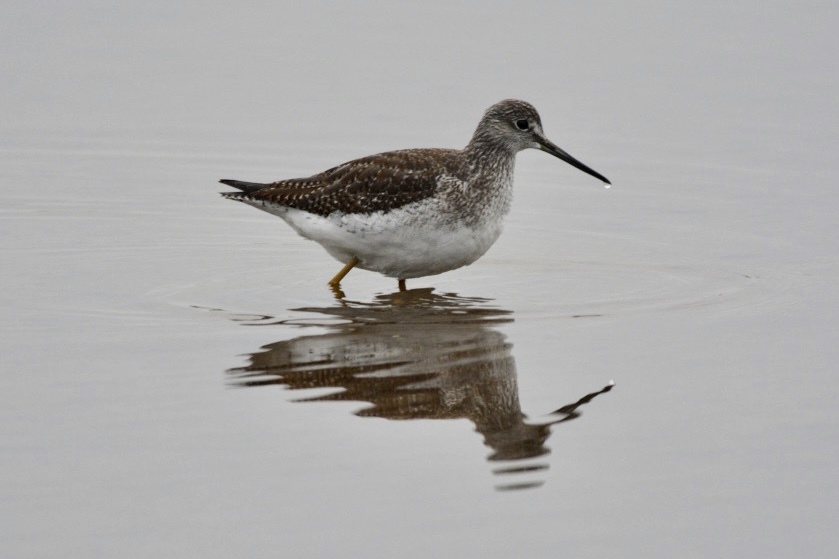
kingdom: Animalia
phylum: Chordata
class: Aves
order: Charadriiformes
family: Scolopacidae
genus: Tringa
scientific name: Tringa melanoleuca
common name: Greater yellowlegs
